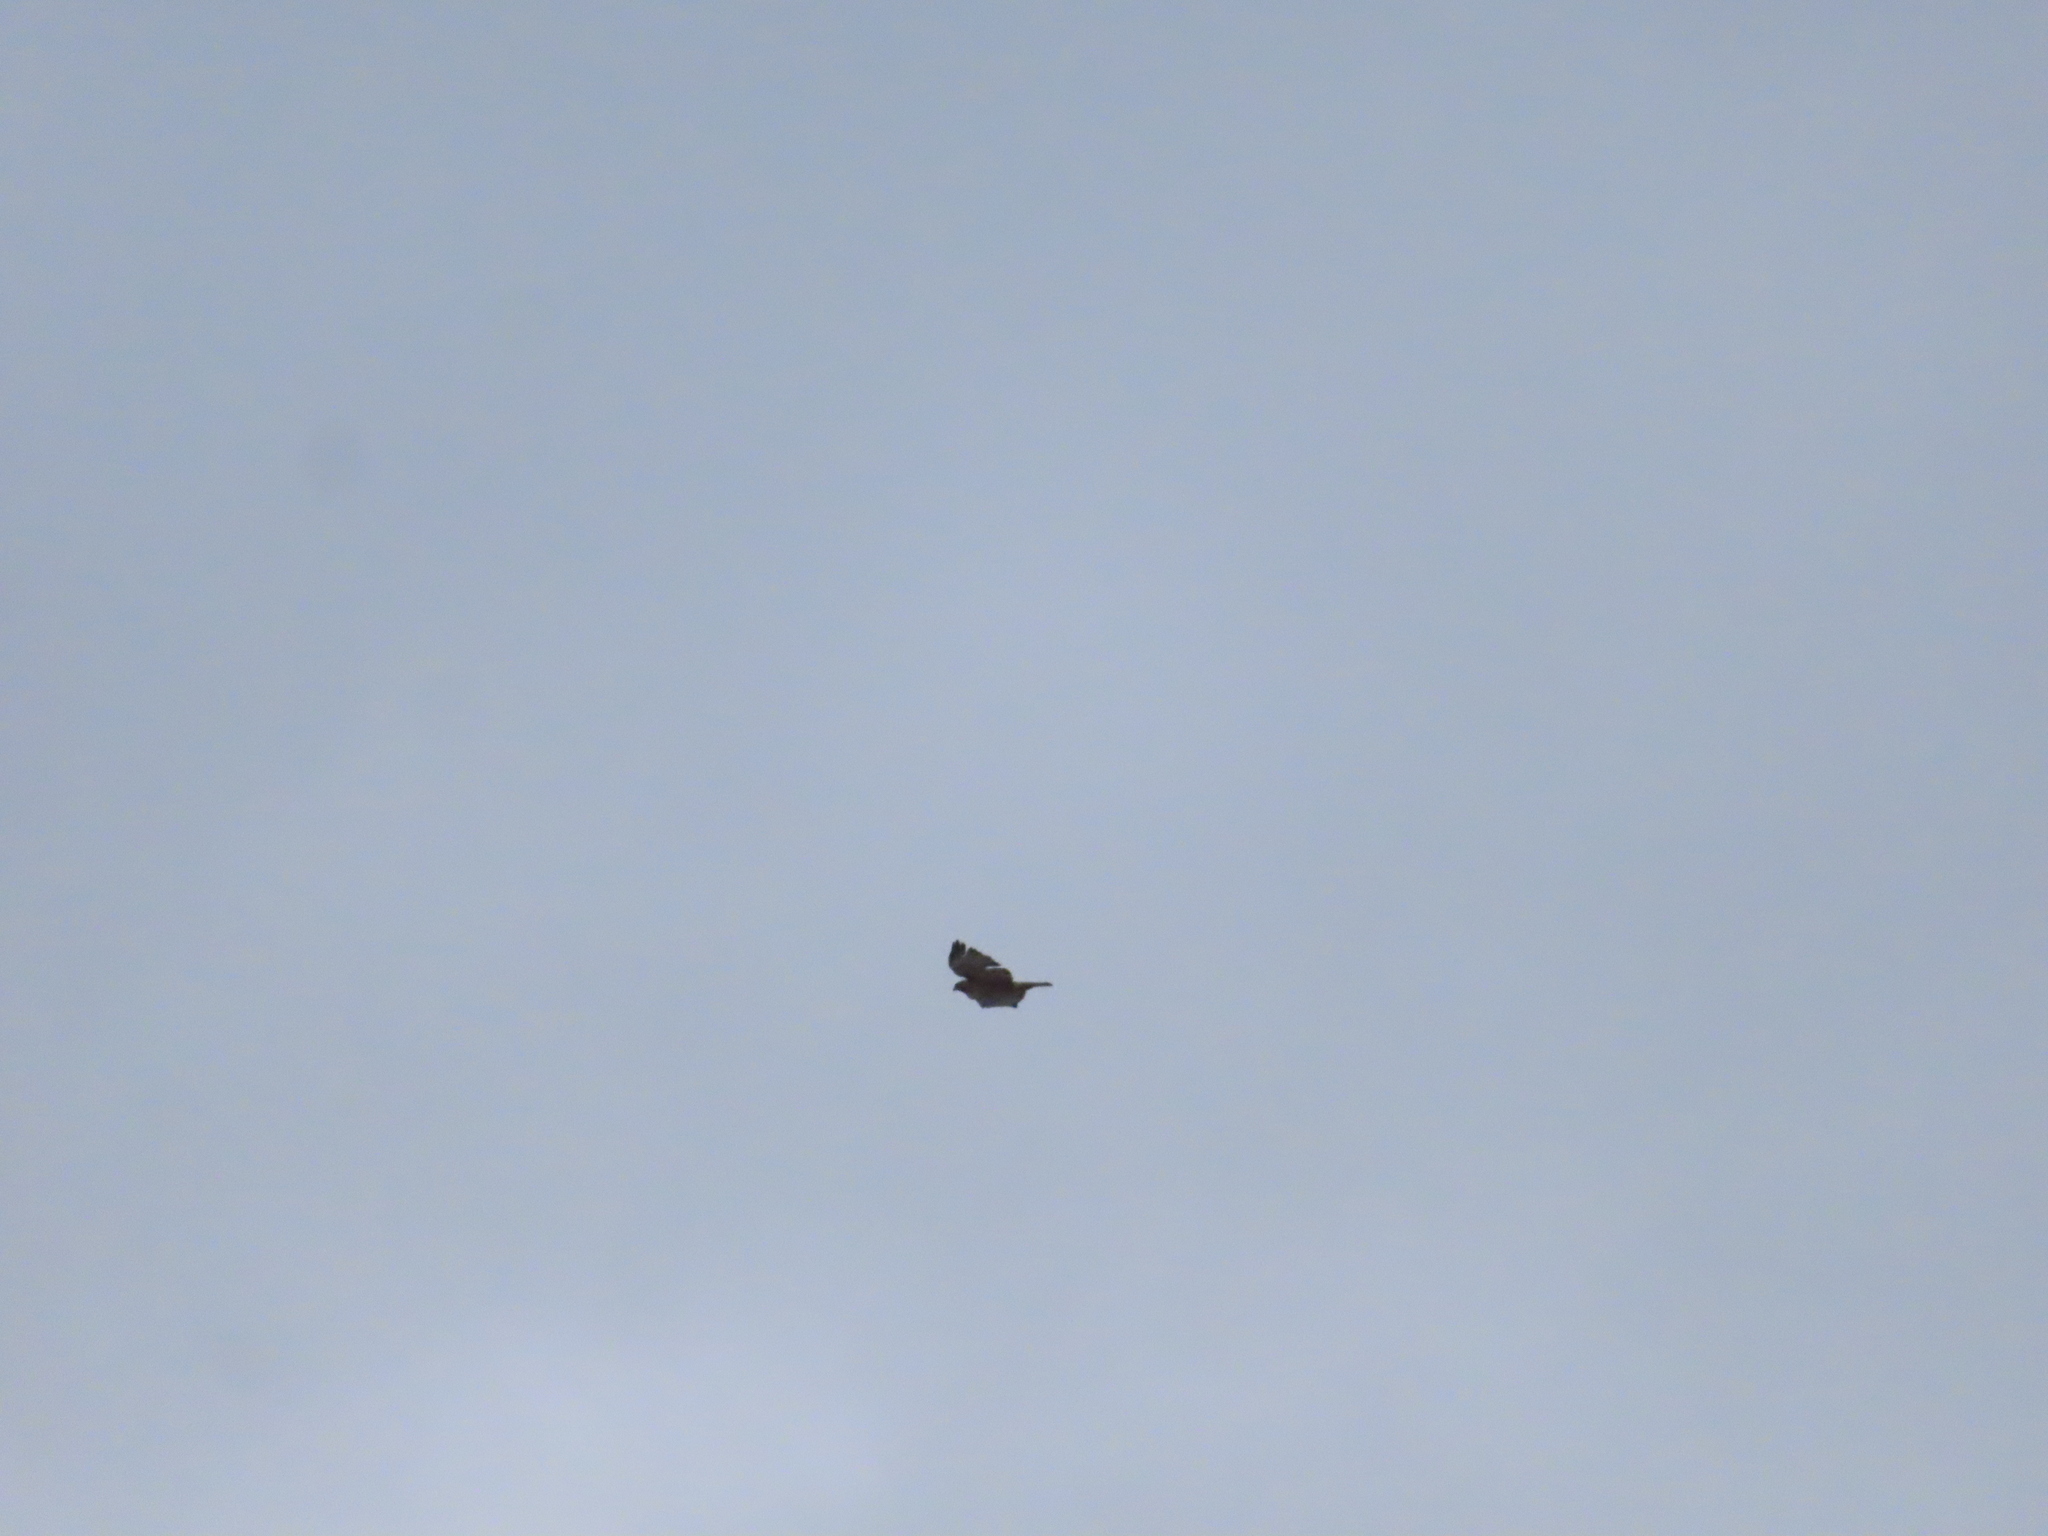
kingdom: Animalia
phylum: Chordata
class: Aves
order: Accipitriformes
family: Accipitridae
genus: Buteo
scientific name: Buteo jamaicensis
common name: Red-tailed hawk
